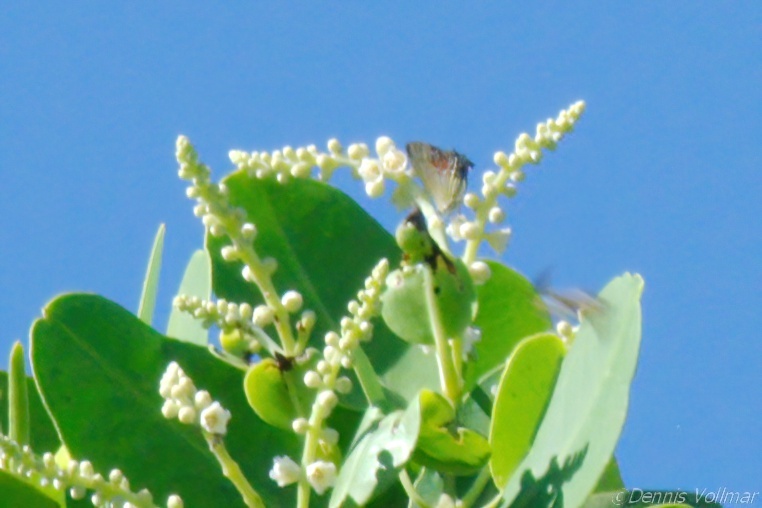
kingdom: Animalia
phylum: Arthropoda
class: Insecta
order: Lepidoptera
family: Lycaenidae
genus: Thecla
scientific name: Thecla maesites
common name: Verde azul hairstreak
